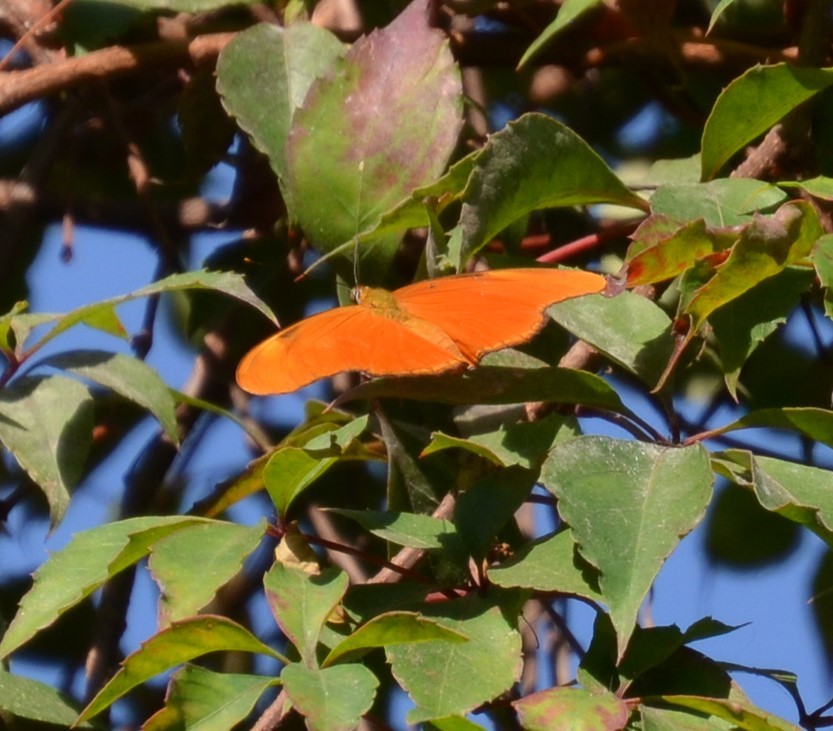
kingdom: Animalia
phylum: Arthropoda
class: Insecta
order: Lepidoptera
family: Nymphalidae
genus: Dryas
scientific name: Dryas iulia
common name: Flambeau
